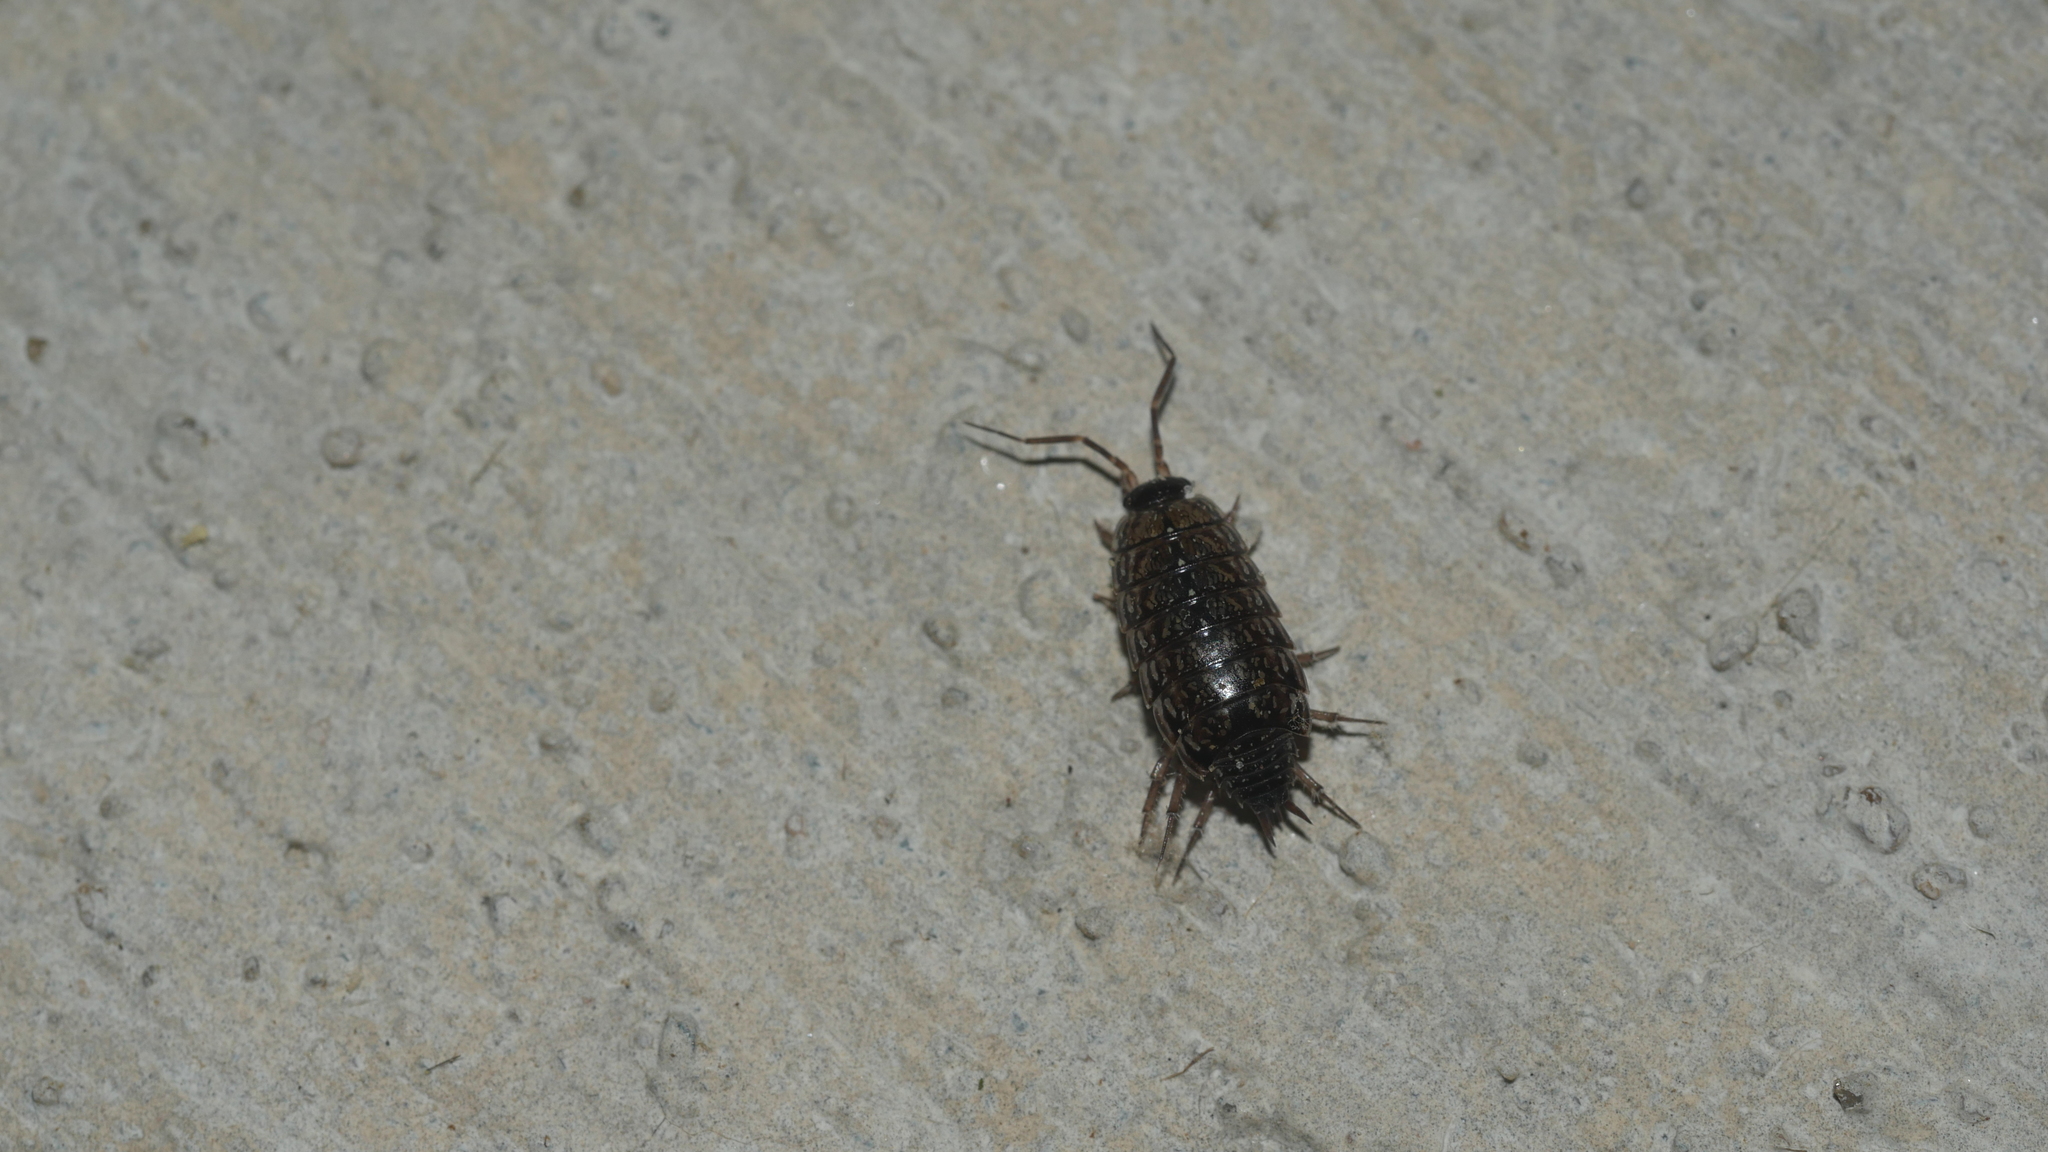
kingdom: Animalia
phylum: Arthropoda
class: Malacostraca
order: Isopoda
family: Philosciidae
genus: Philoscia
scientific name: Philoscia muscorum
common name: Common striped woodlouse
